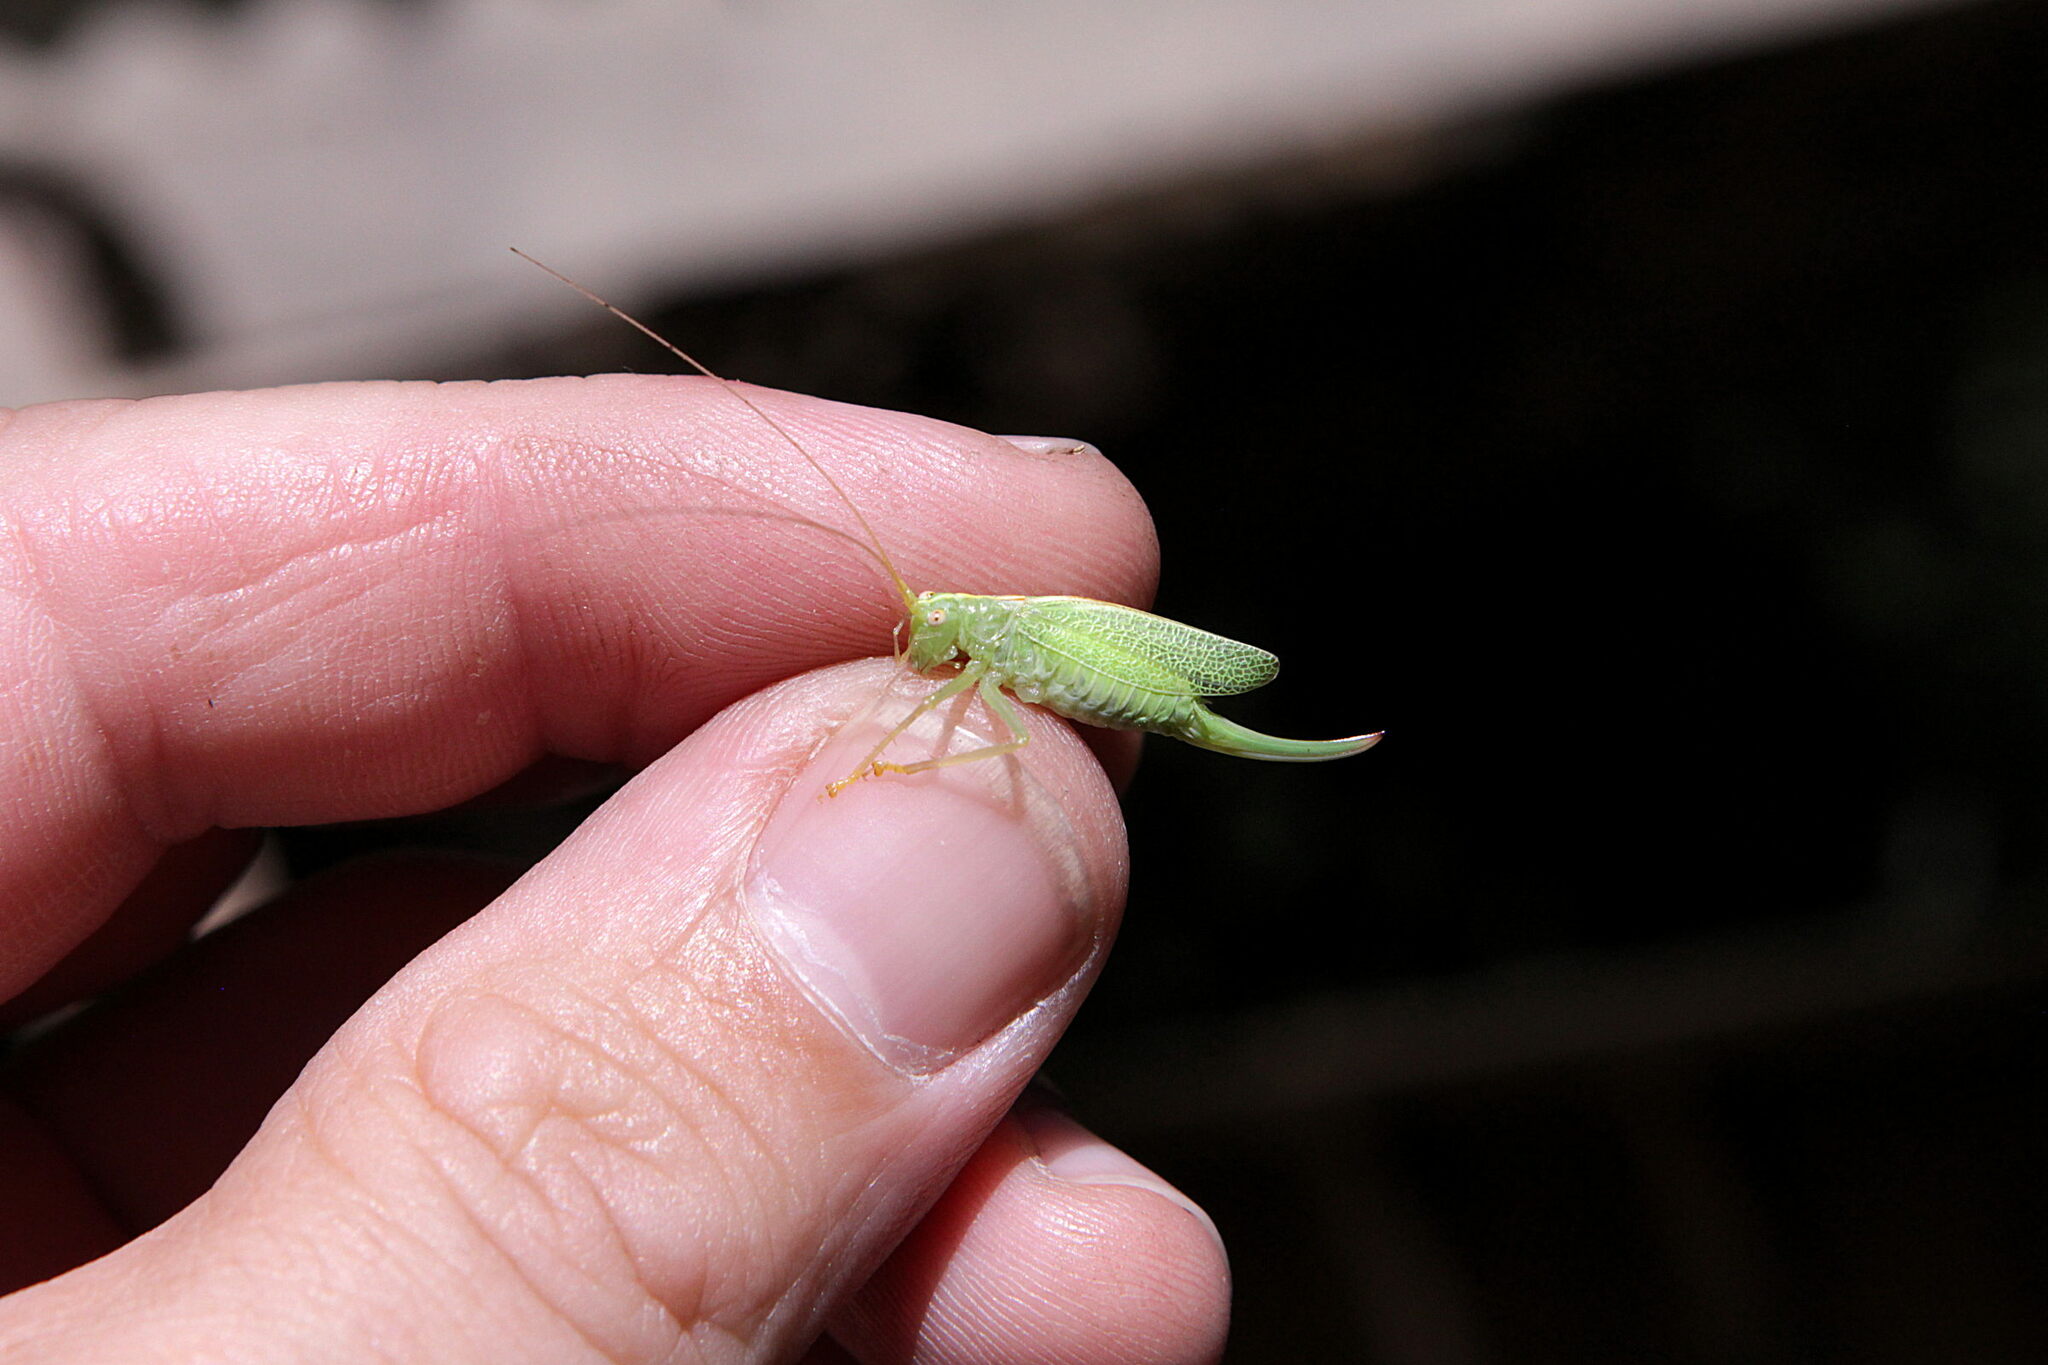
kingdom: Animalia
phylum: Arthropoda
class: Insecta
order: Orthoptera
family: Tettigoniidae
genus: Meconema
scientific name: Meconema thalassinum
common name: Oak bush-cricket
